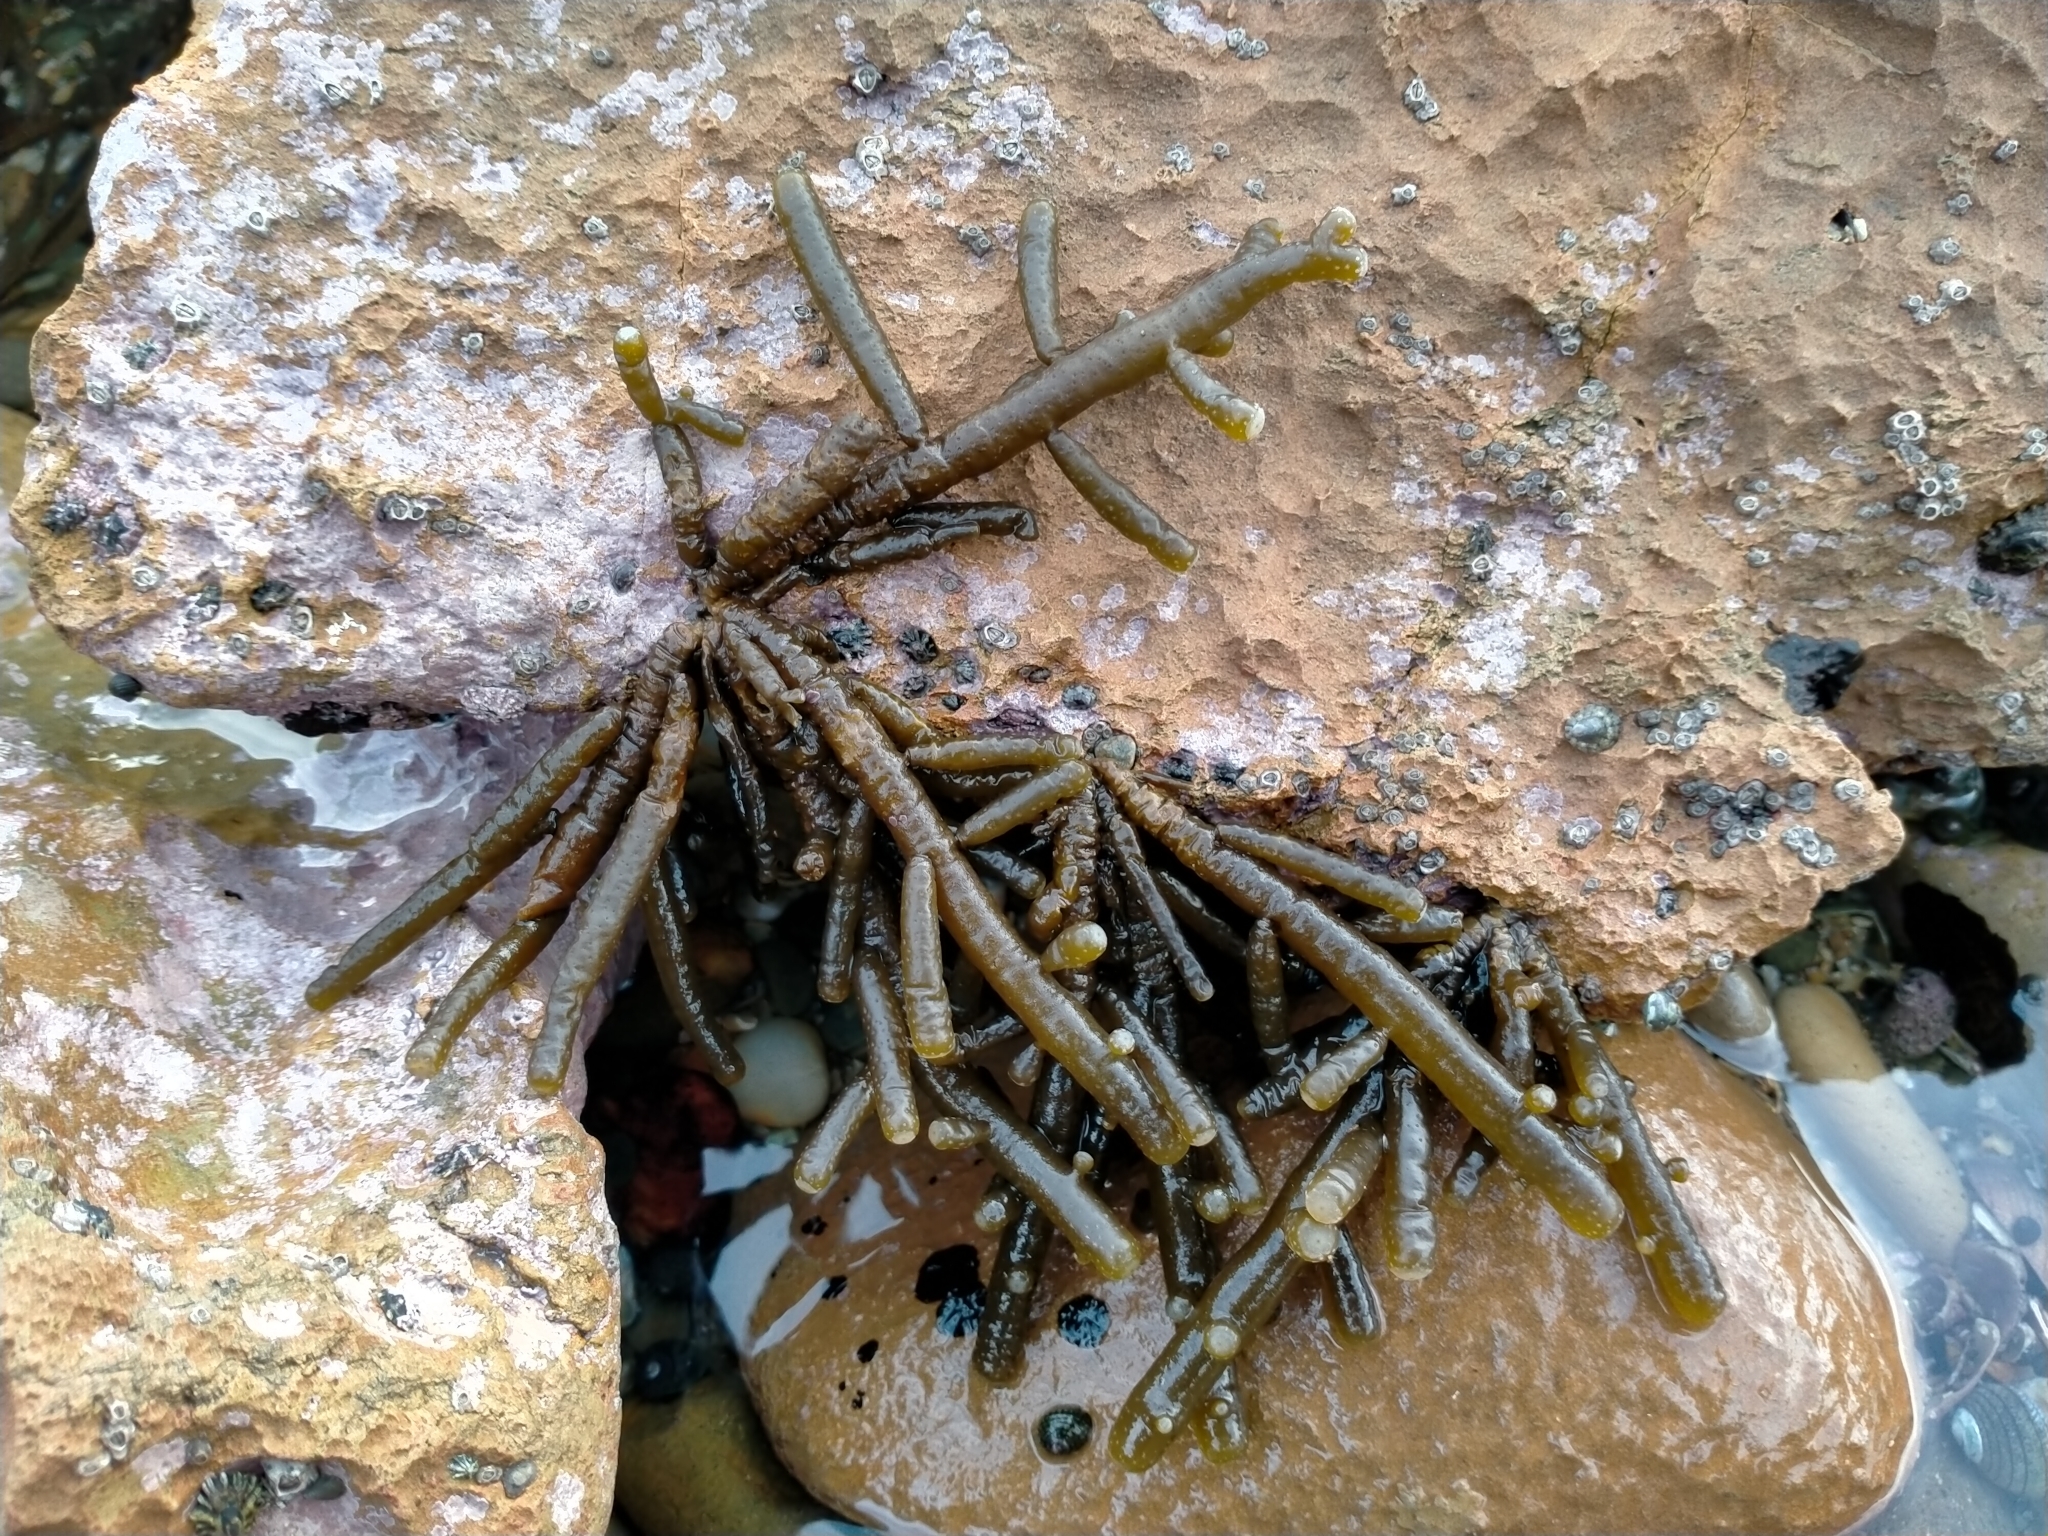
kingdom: Chromista
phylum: Ochrophyta
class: Phaeophyceae
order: Scytothamnales
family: Splachnidiaceae
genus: Splachnidium
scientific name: Splachnidium rugosum
